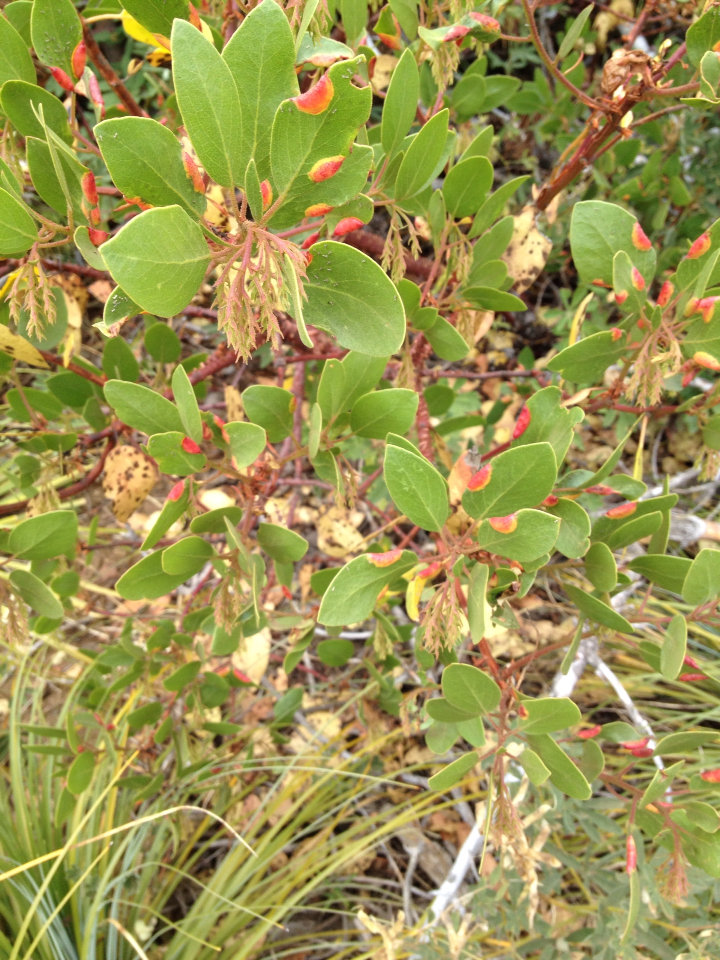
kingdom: Plantae
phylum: Tracheophyta
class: Magnoliopsida
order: Ericales
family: Ericaceae
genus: Arctostaphylos
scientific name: Arctostaphylos patula
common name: Green-leaf manzanita
